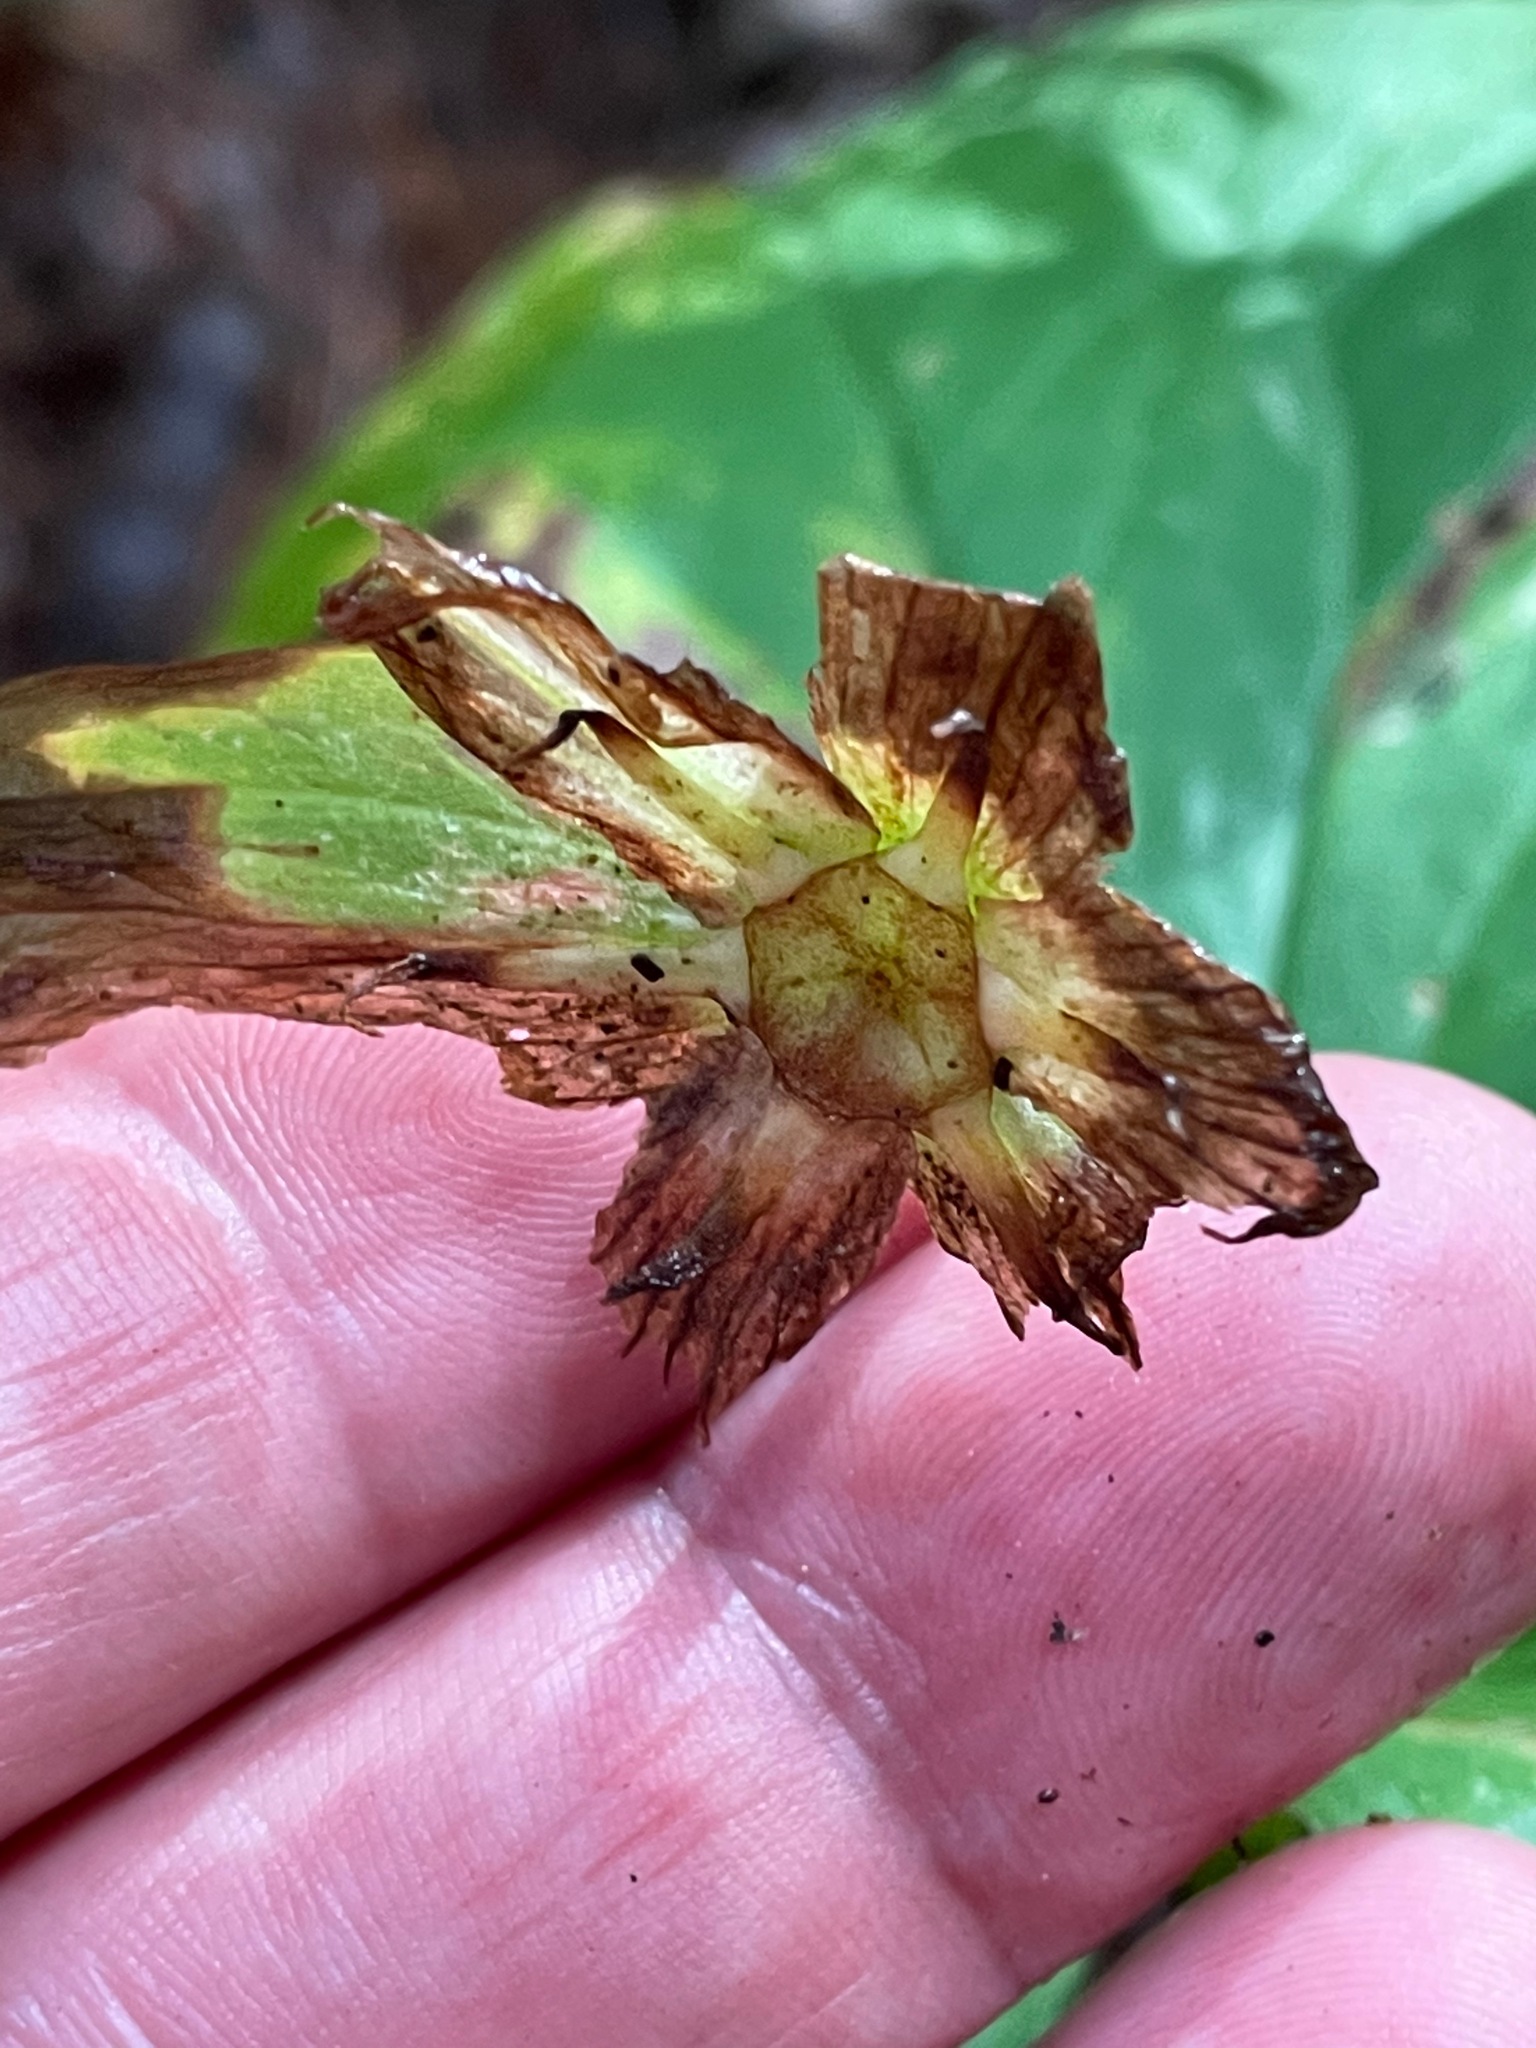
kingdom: Plantae
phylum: Tracheophyta
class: Liliopsida
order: Liliales
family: Melanthiaceae
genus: Trillium
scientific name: Trillium grandiflorum
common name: Great white trillium
